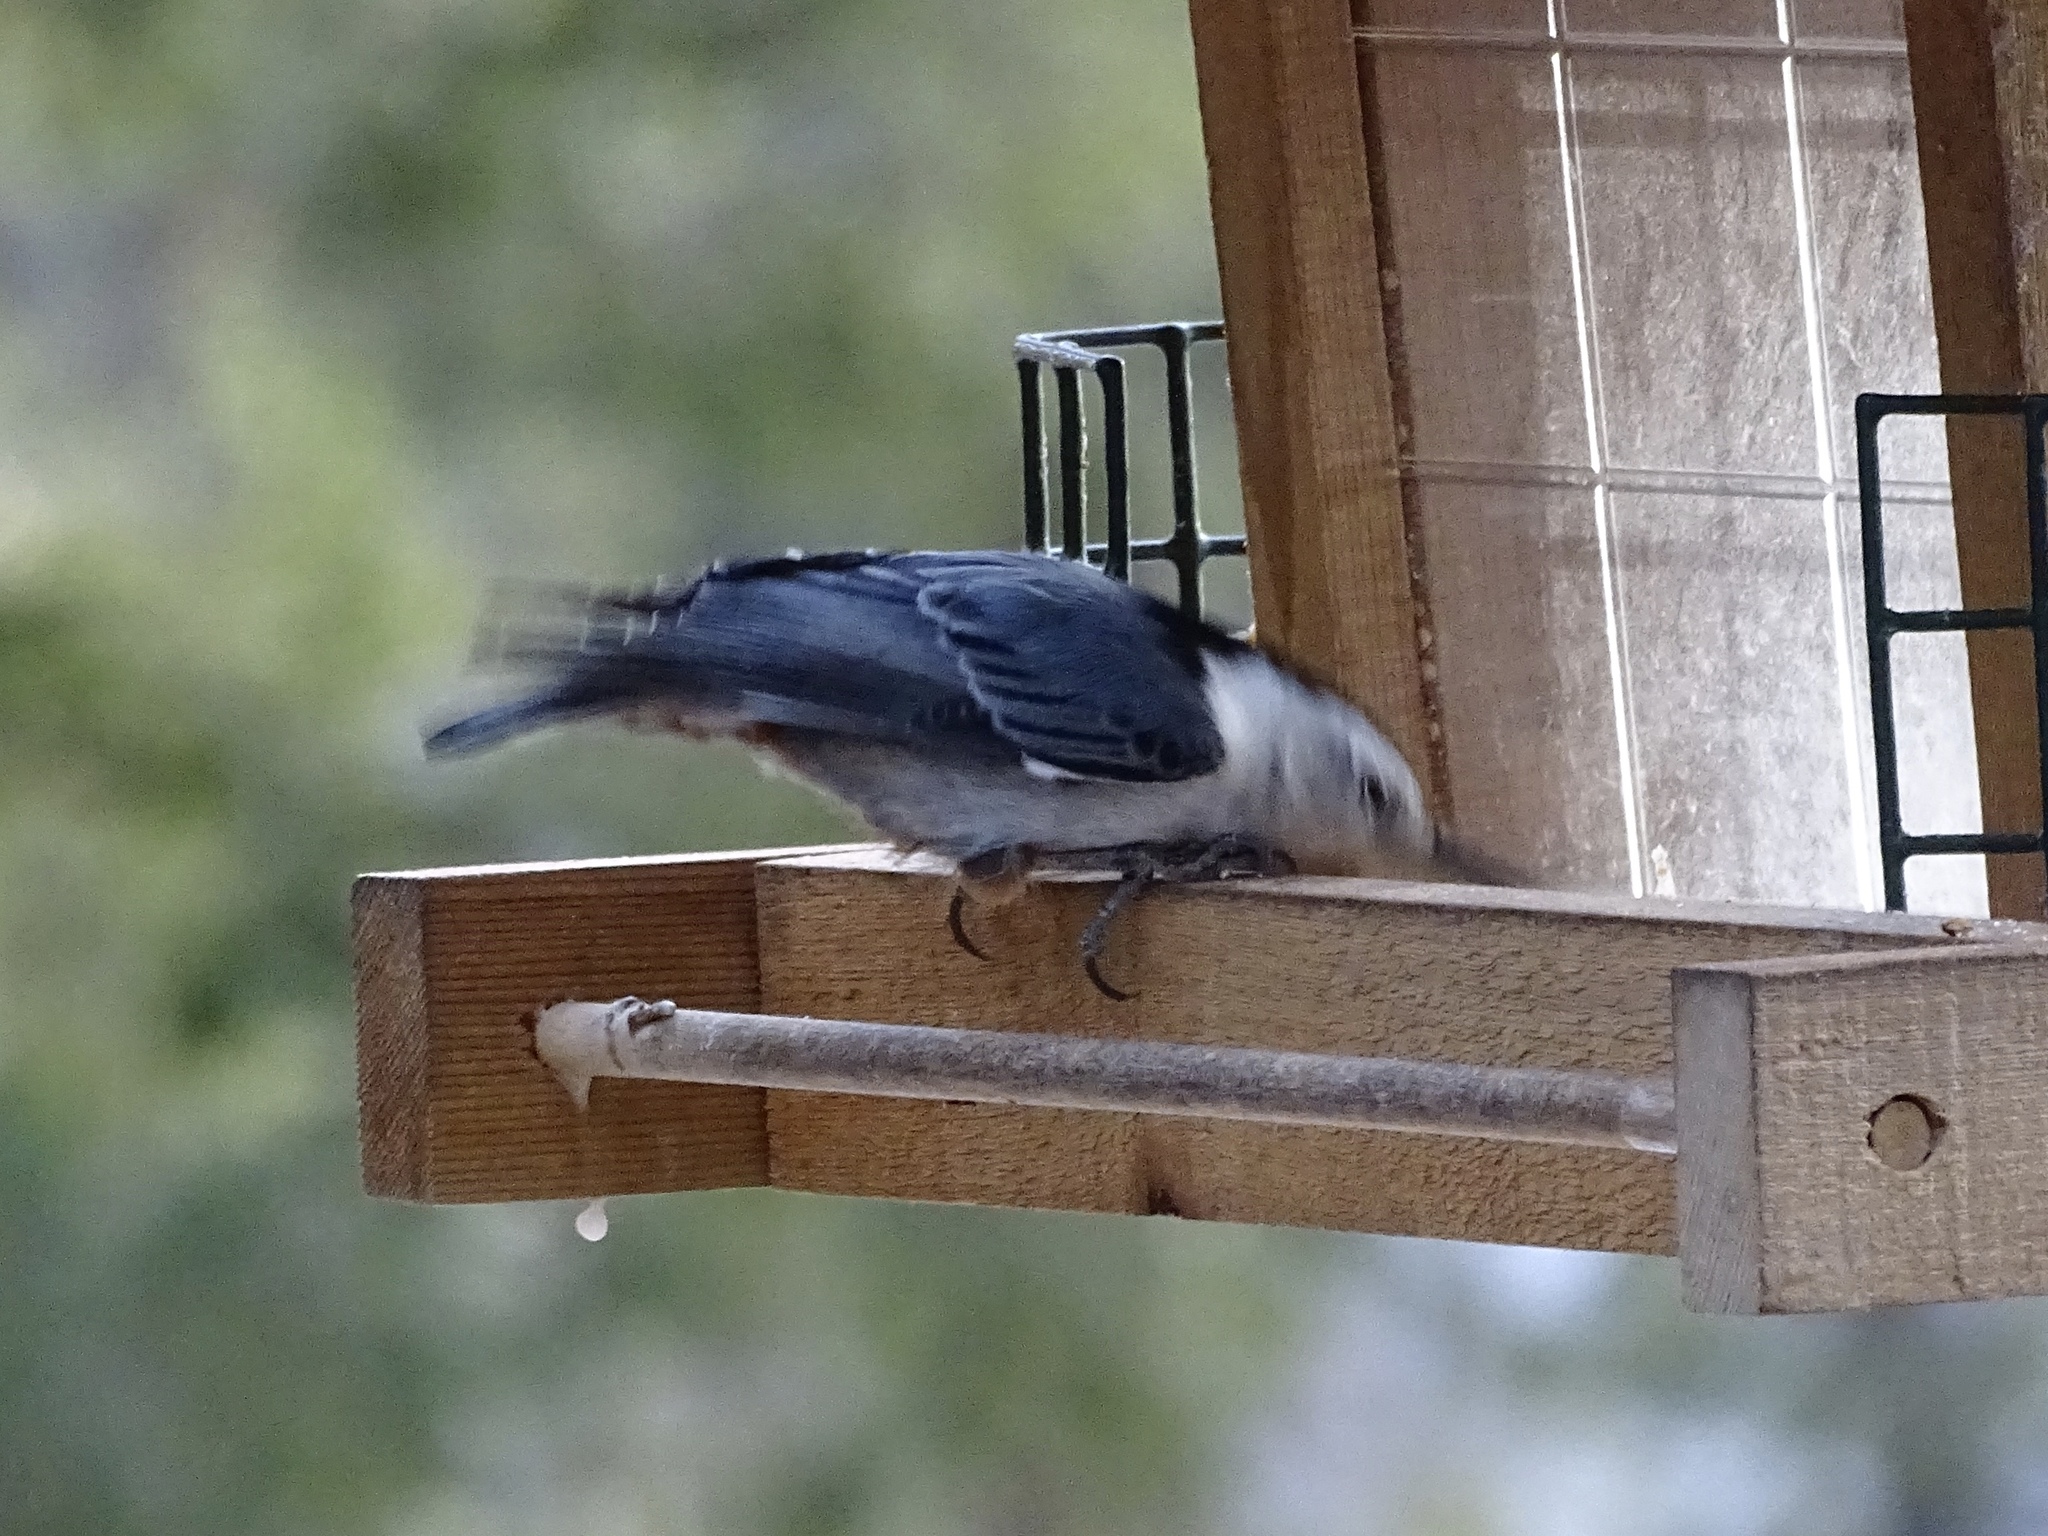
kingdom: Animalia
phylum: Chordata
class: Aves
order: Passeriformes
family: Sittidae
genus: Sitta
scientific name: Sitta carolinensis
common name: White-breasted nuthatch
